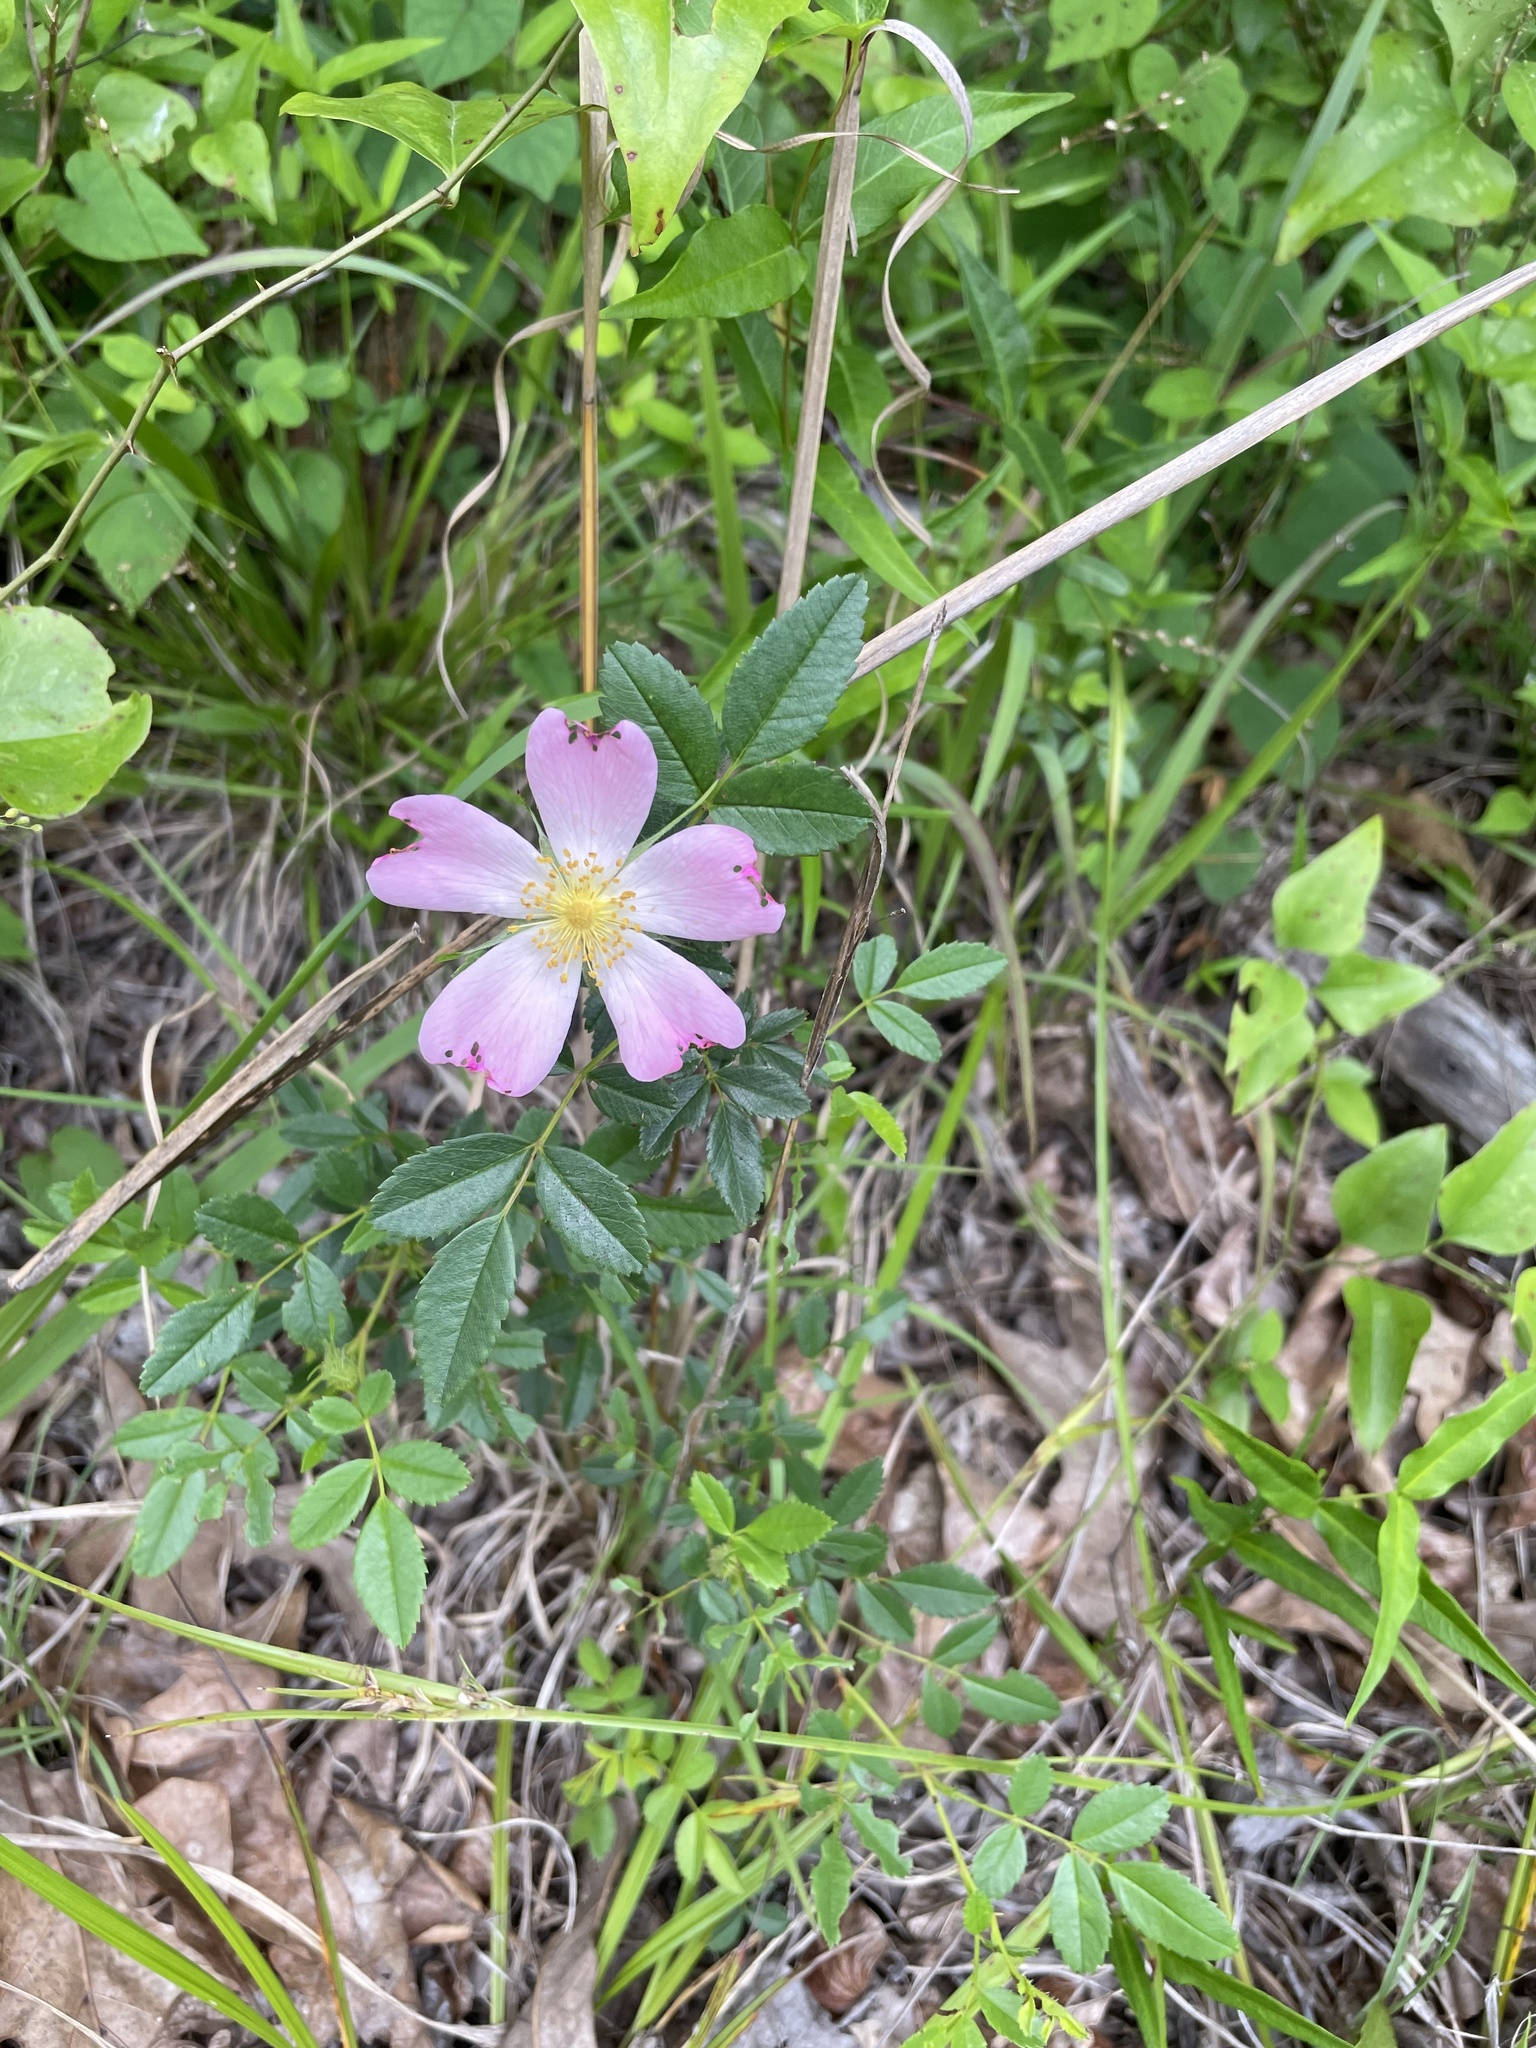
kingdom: Plantae
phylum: Tracheophyta
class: Magnoliopsida
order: Rosales
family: Rosaceae
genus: Rosa
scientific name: Rosa carolina
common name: Pasture rose
